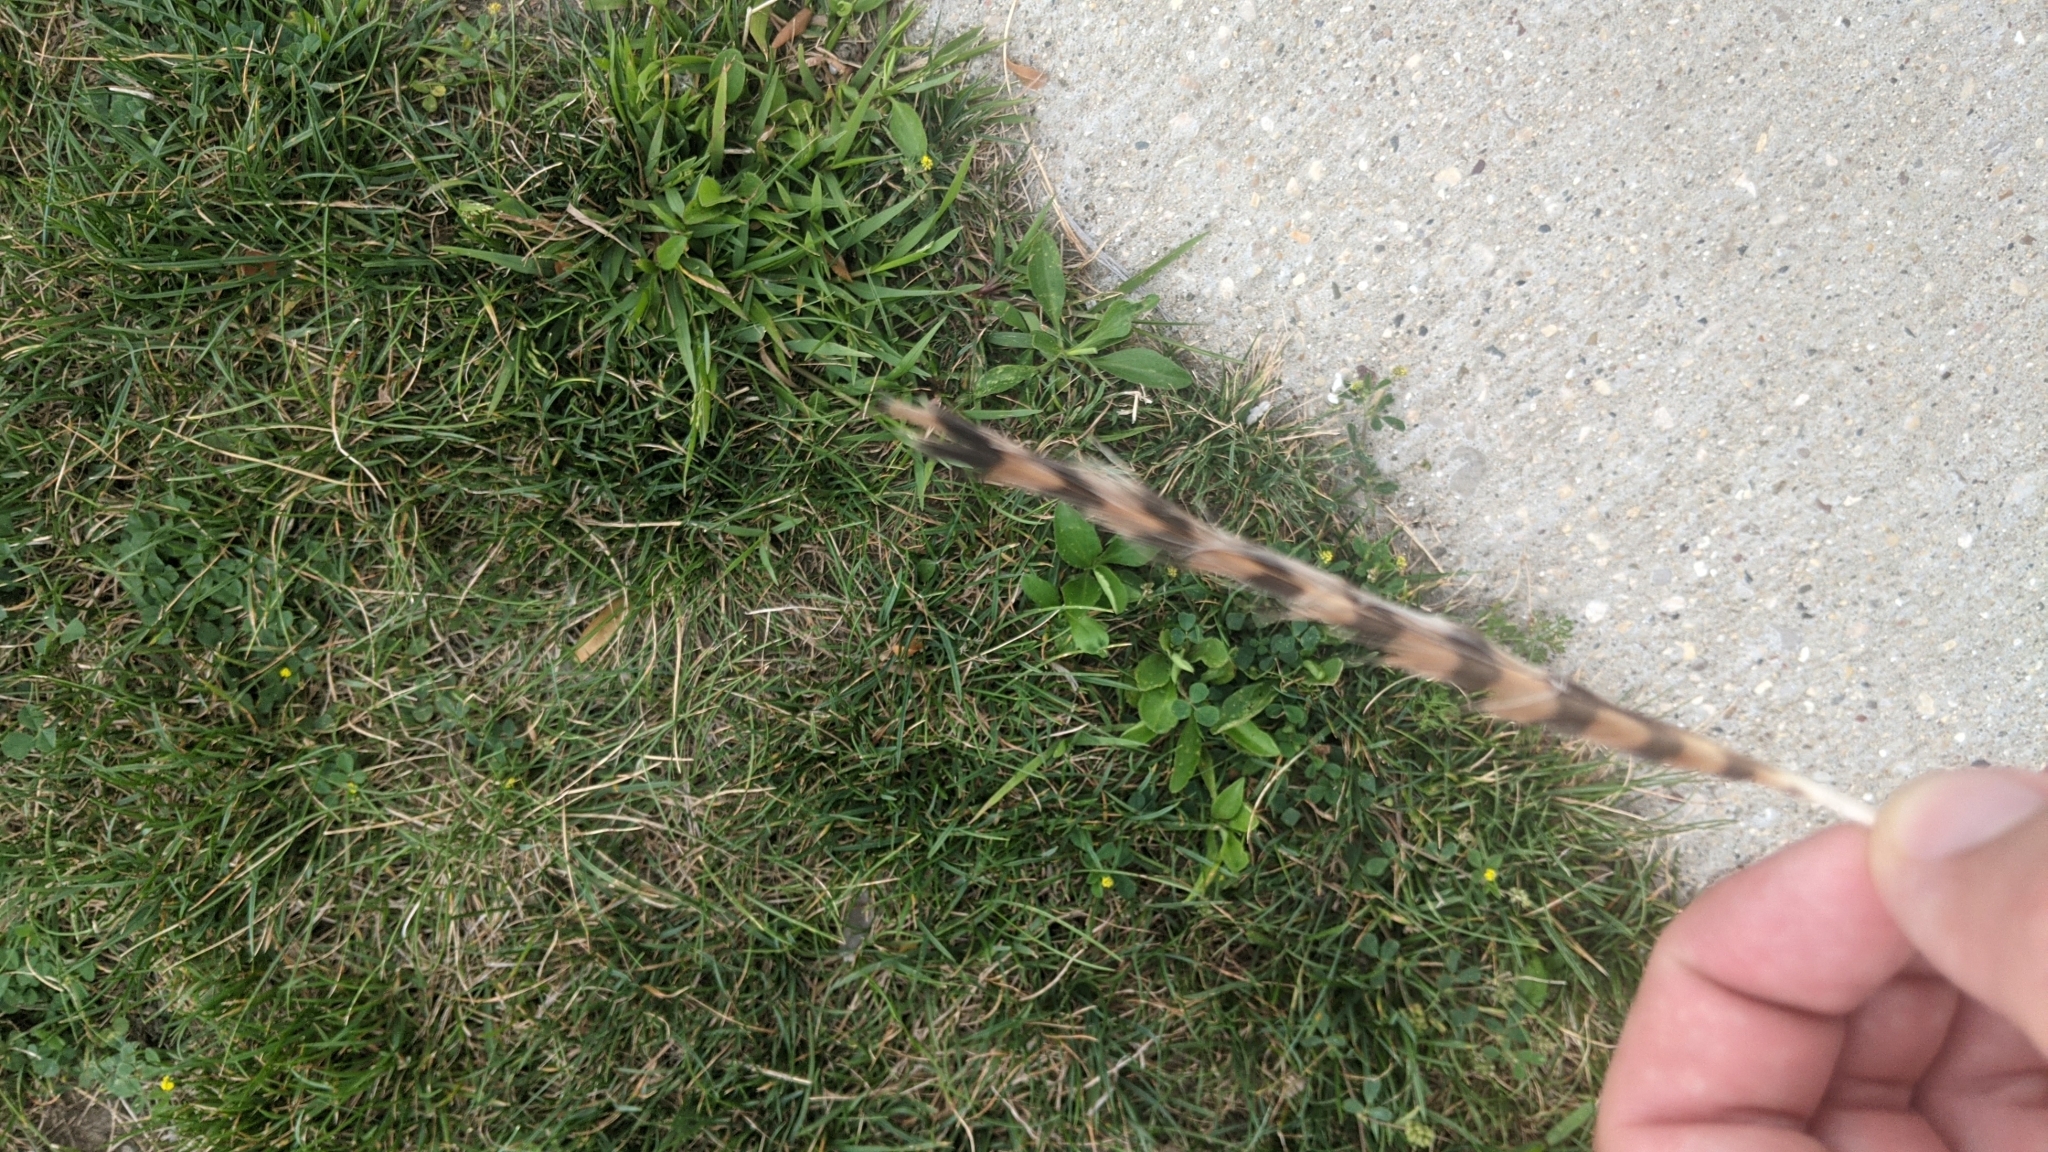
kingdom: Animalia
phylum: Chordata
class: Aves
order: Falconiformes
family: Falconidae
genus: Falco
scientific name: Falco sparverius
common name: American kestrel
